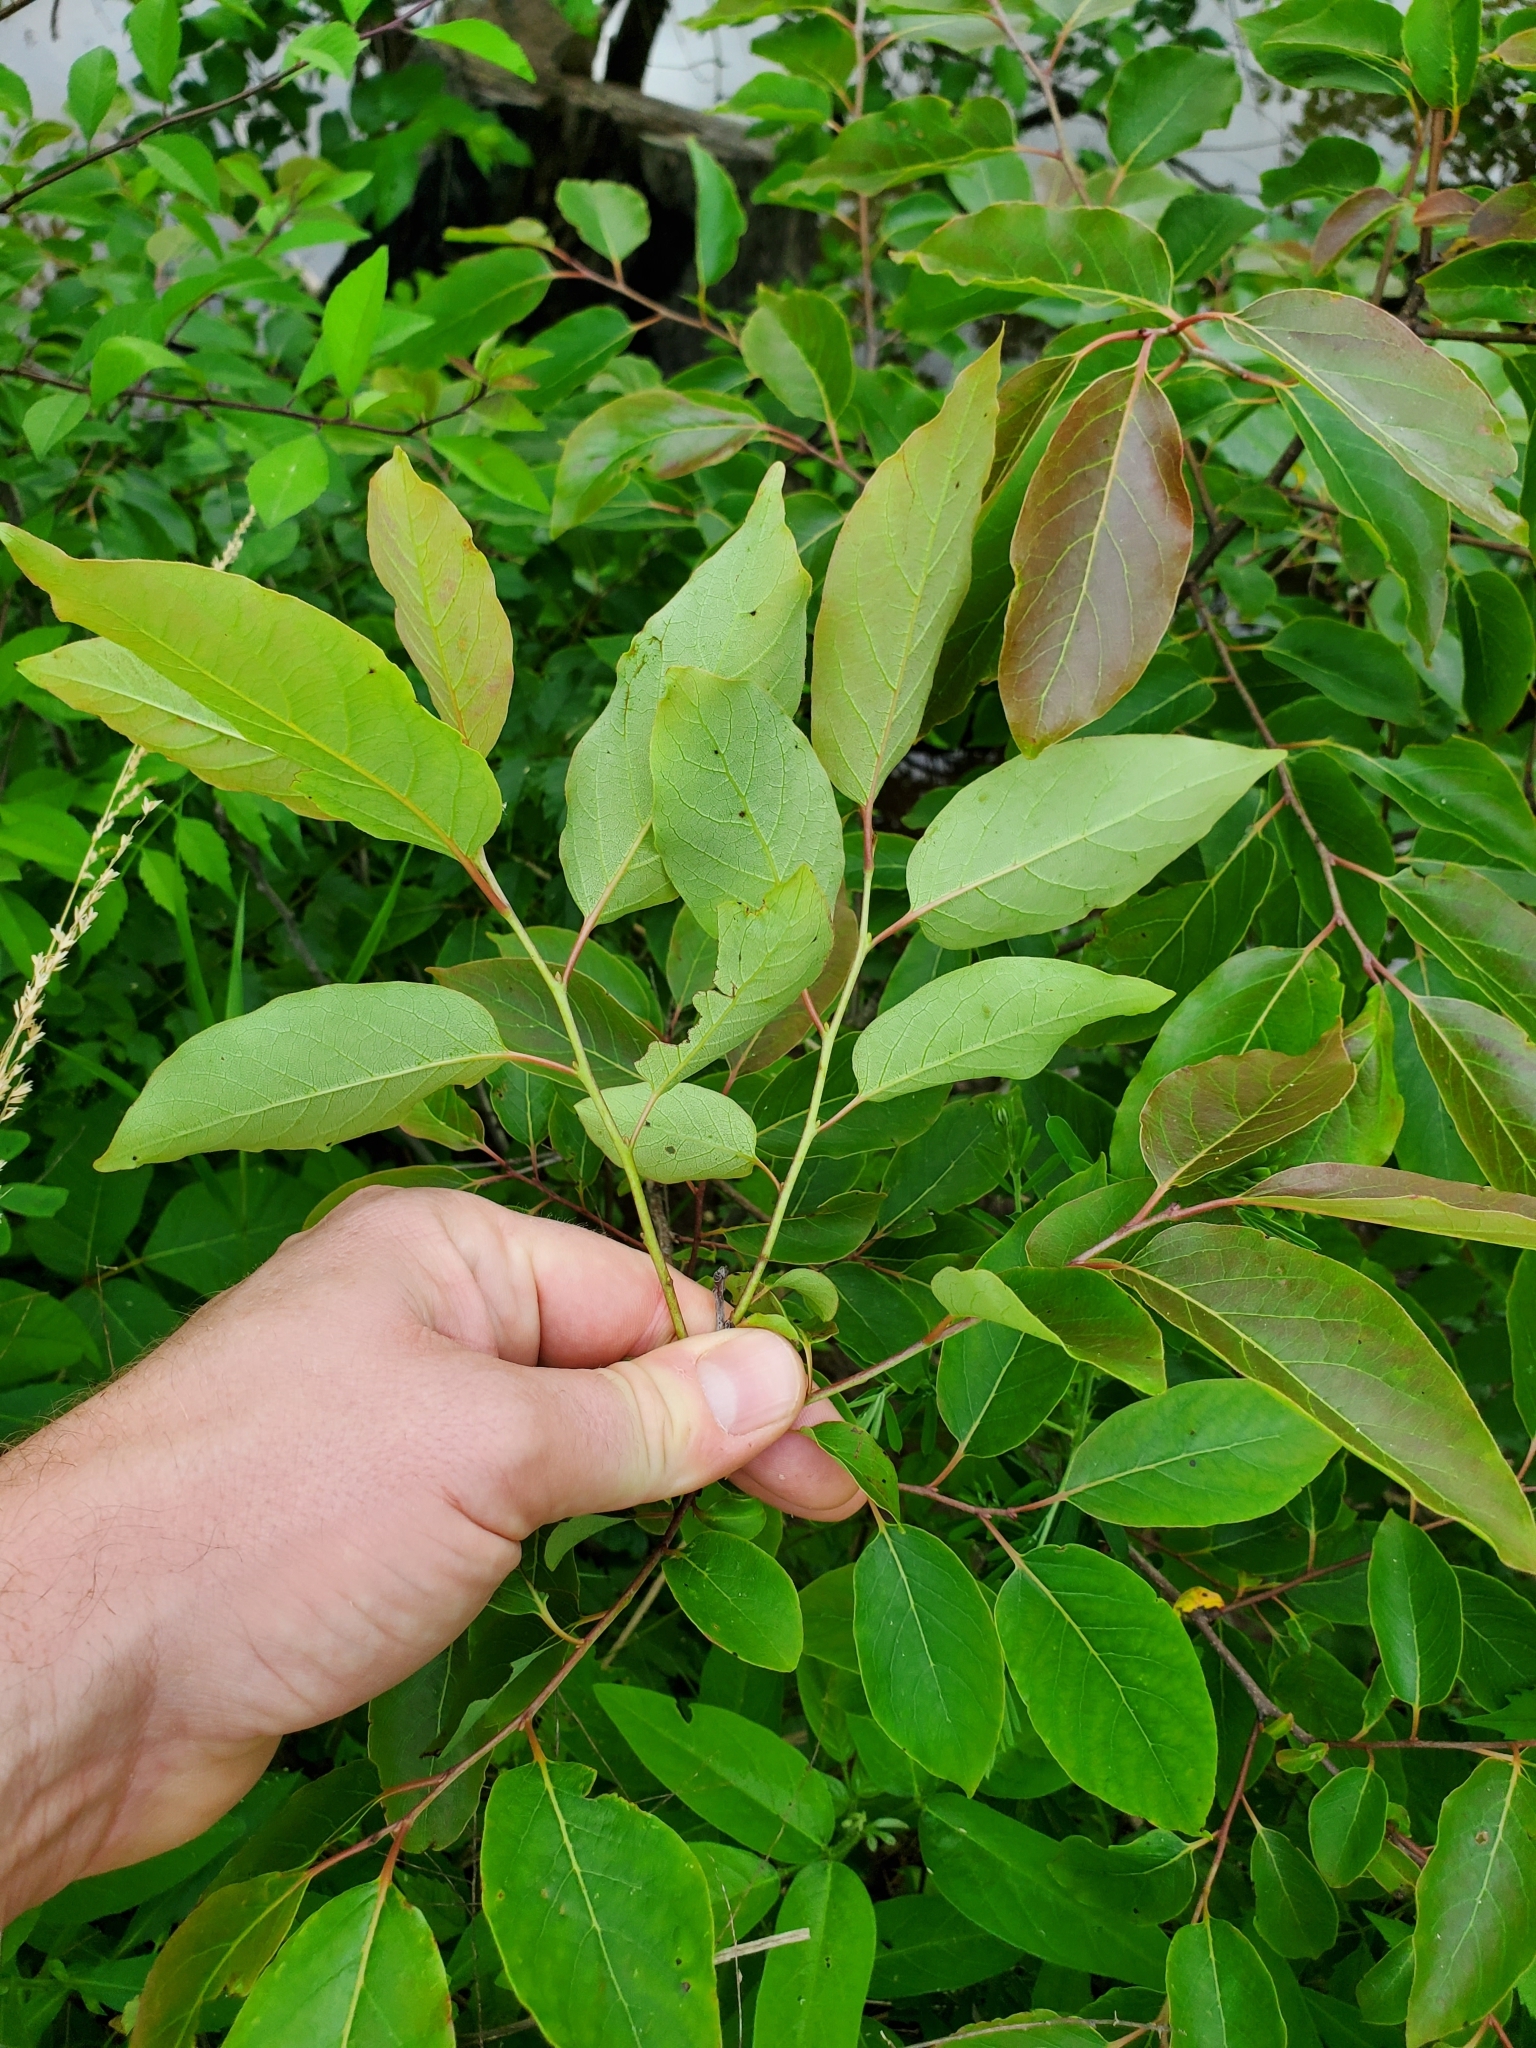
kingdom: Plantae
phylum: Tracheophyta
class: Magnoliopsida
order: Ericales
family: Ebenaceae
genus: Diospyros
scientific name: Diospyros virginiana
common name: Persimmon
